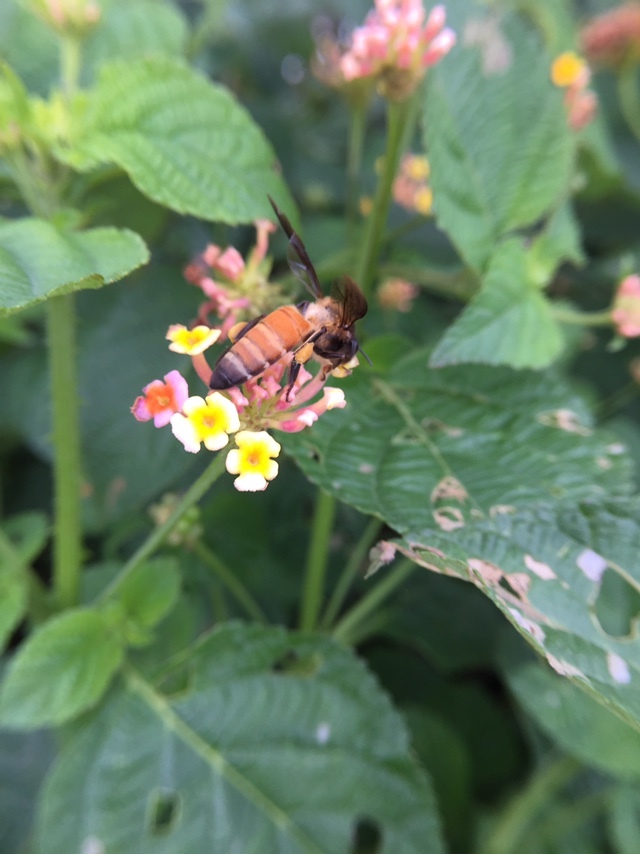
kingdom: Animalia
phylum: Arthropoda
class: Insecta
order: Hymenoptera
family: Apidae
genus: Apis
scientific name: Apis dorsata
